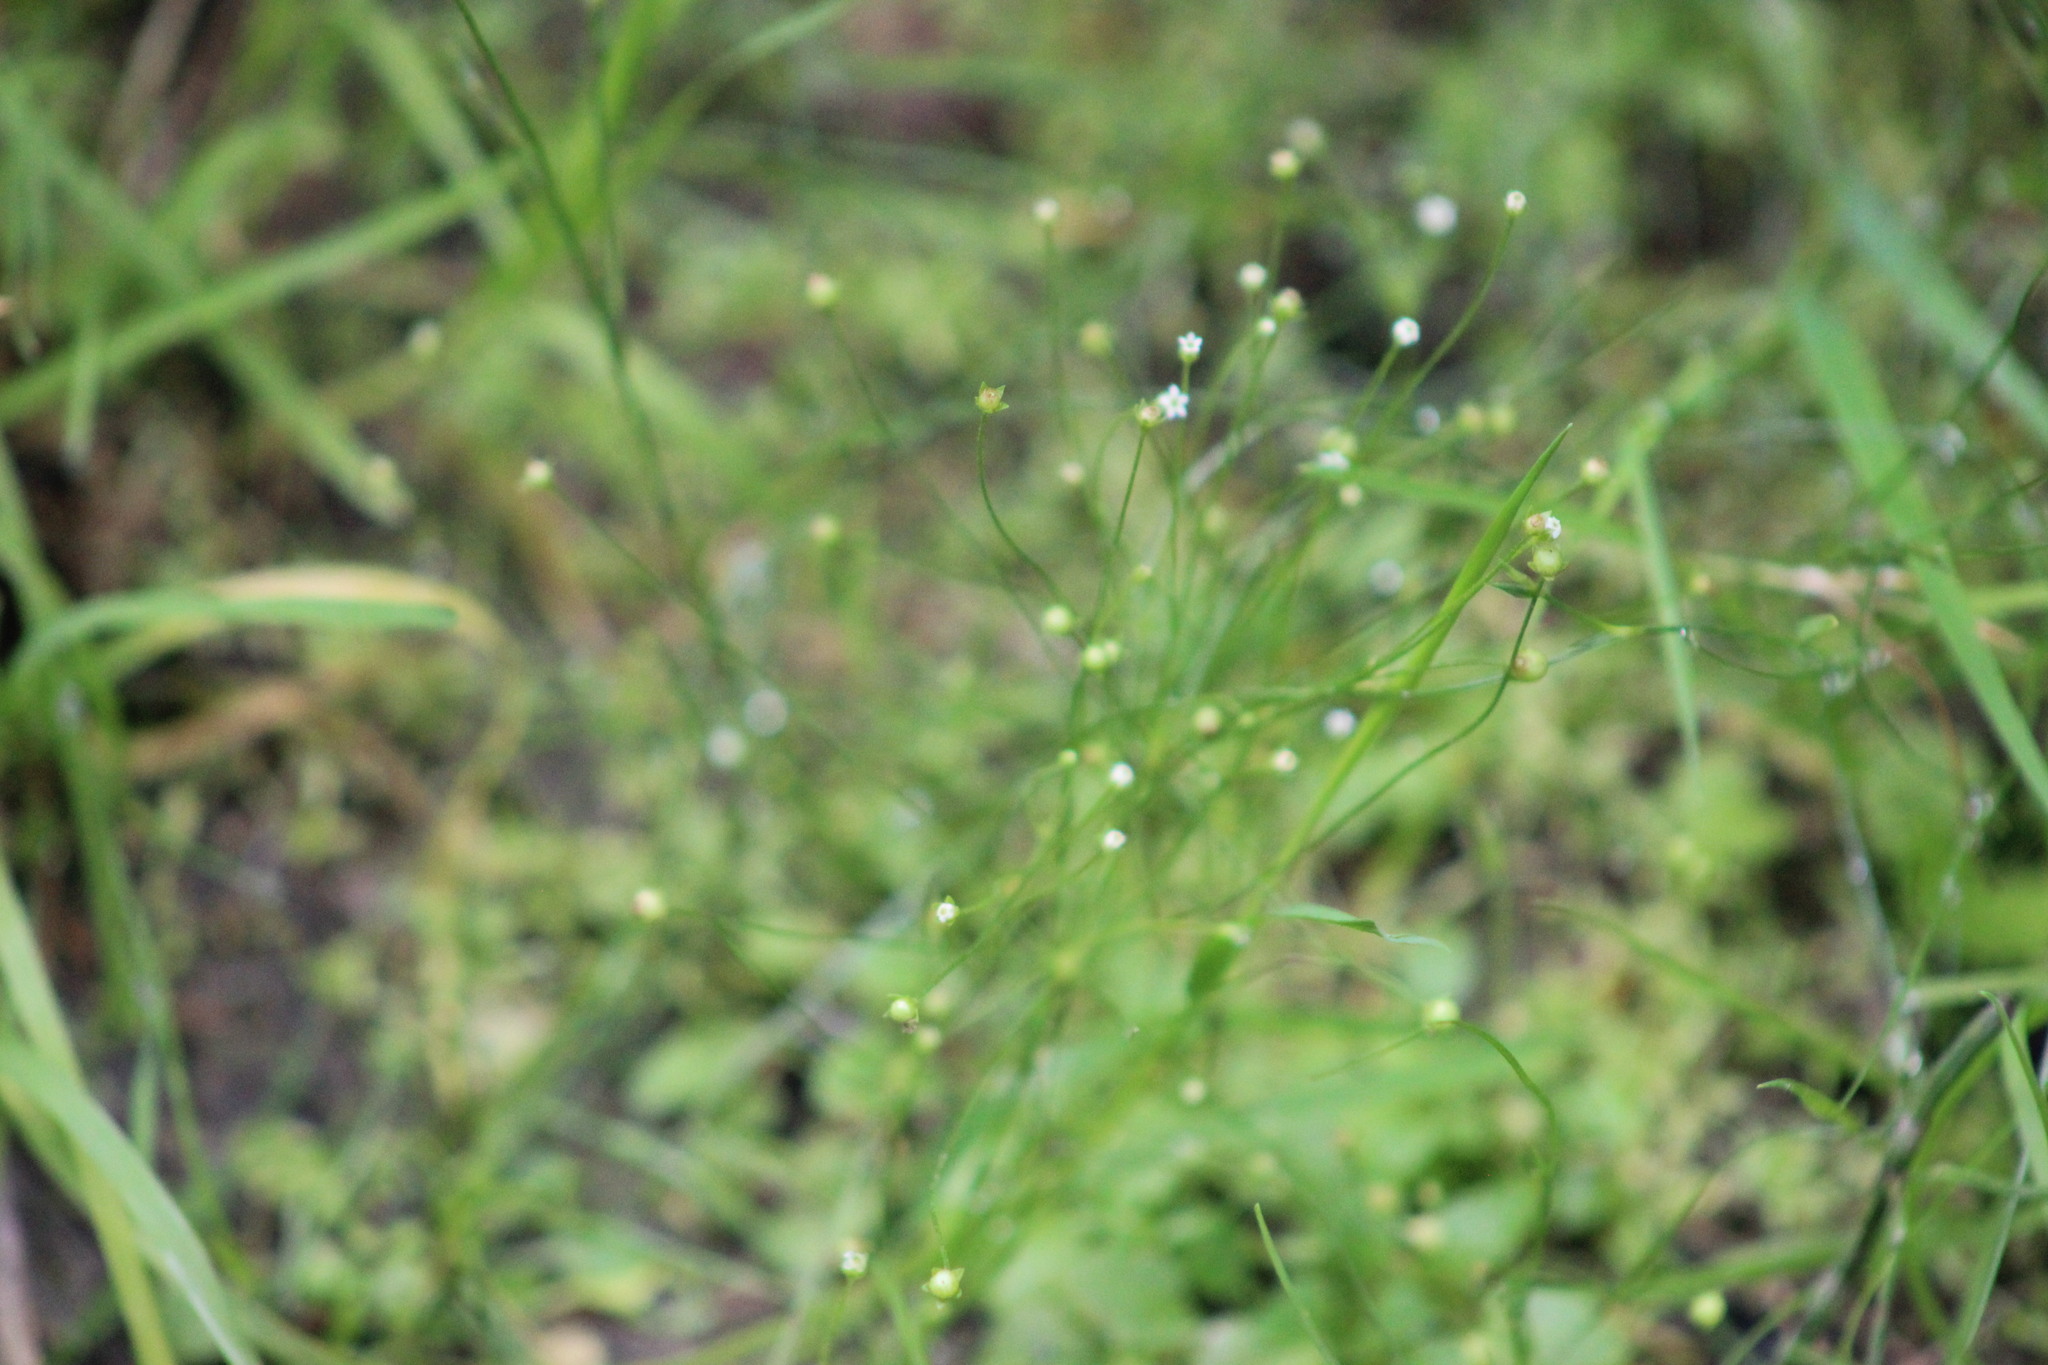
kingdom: Plantae
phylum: Tracheophyta
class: Magnoliopsida
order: Ericales
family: Primulaceae
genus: Androsace
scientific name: Androsace filiformis
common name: Filiform rock jasmine
